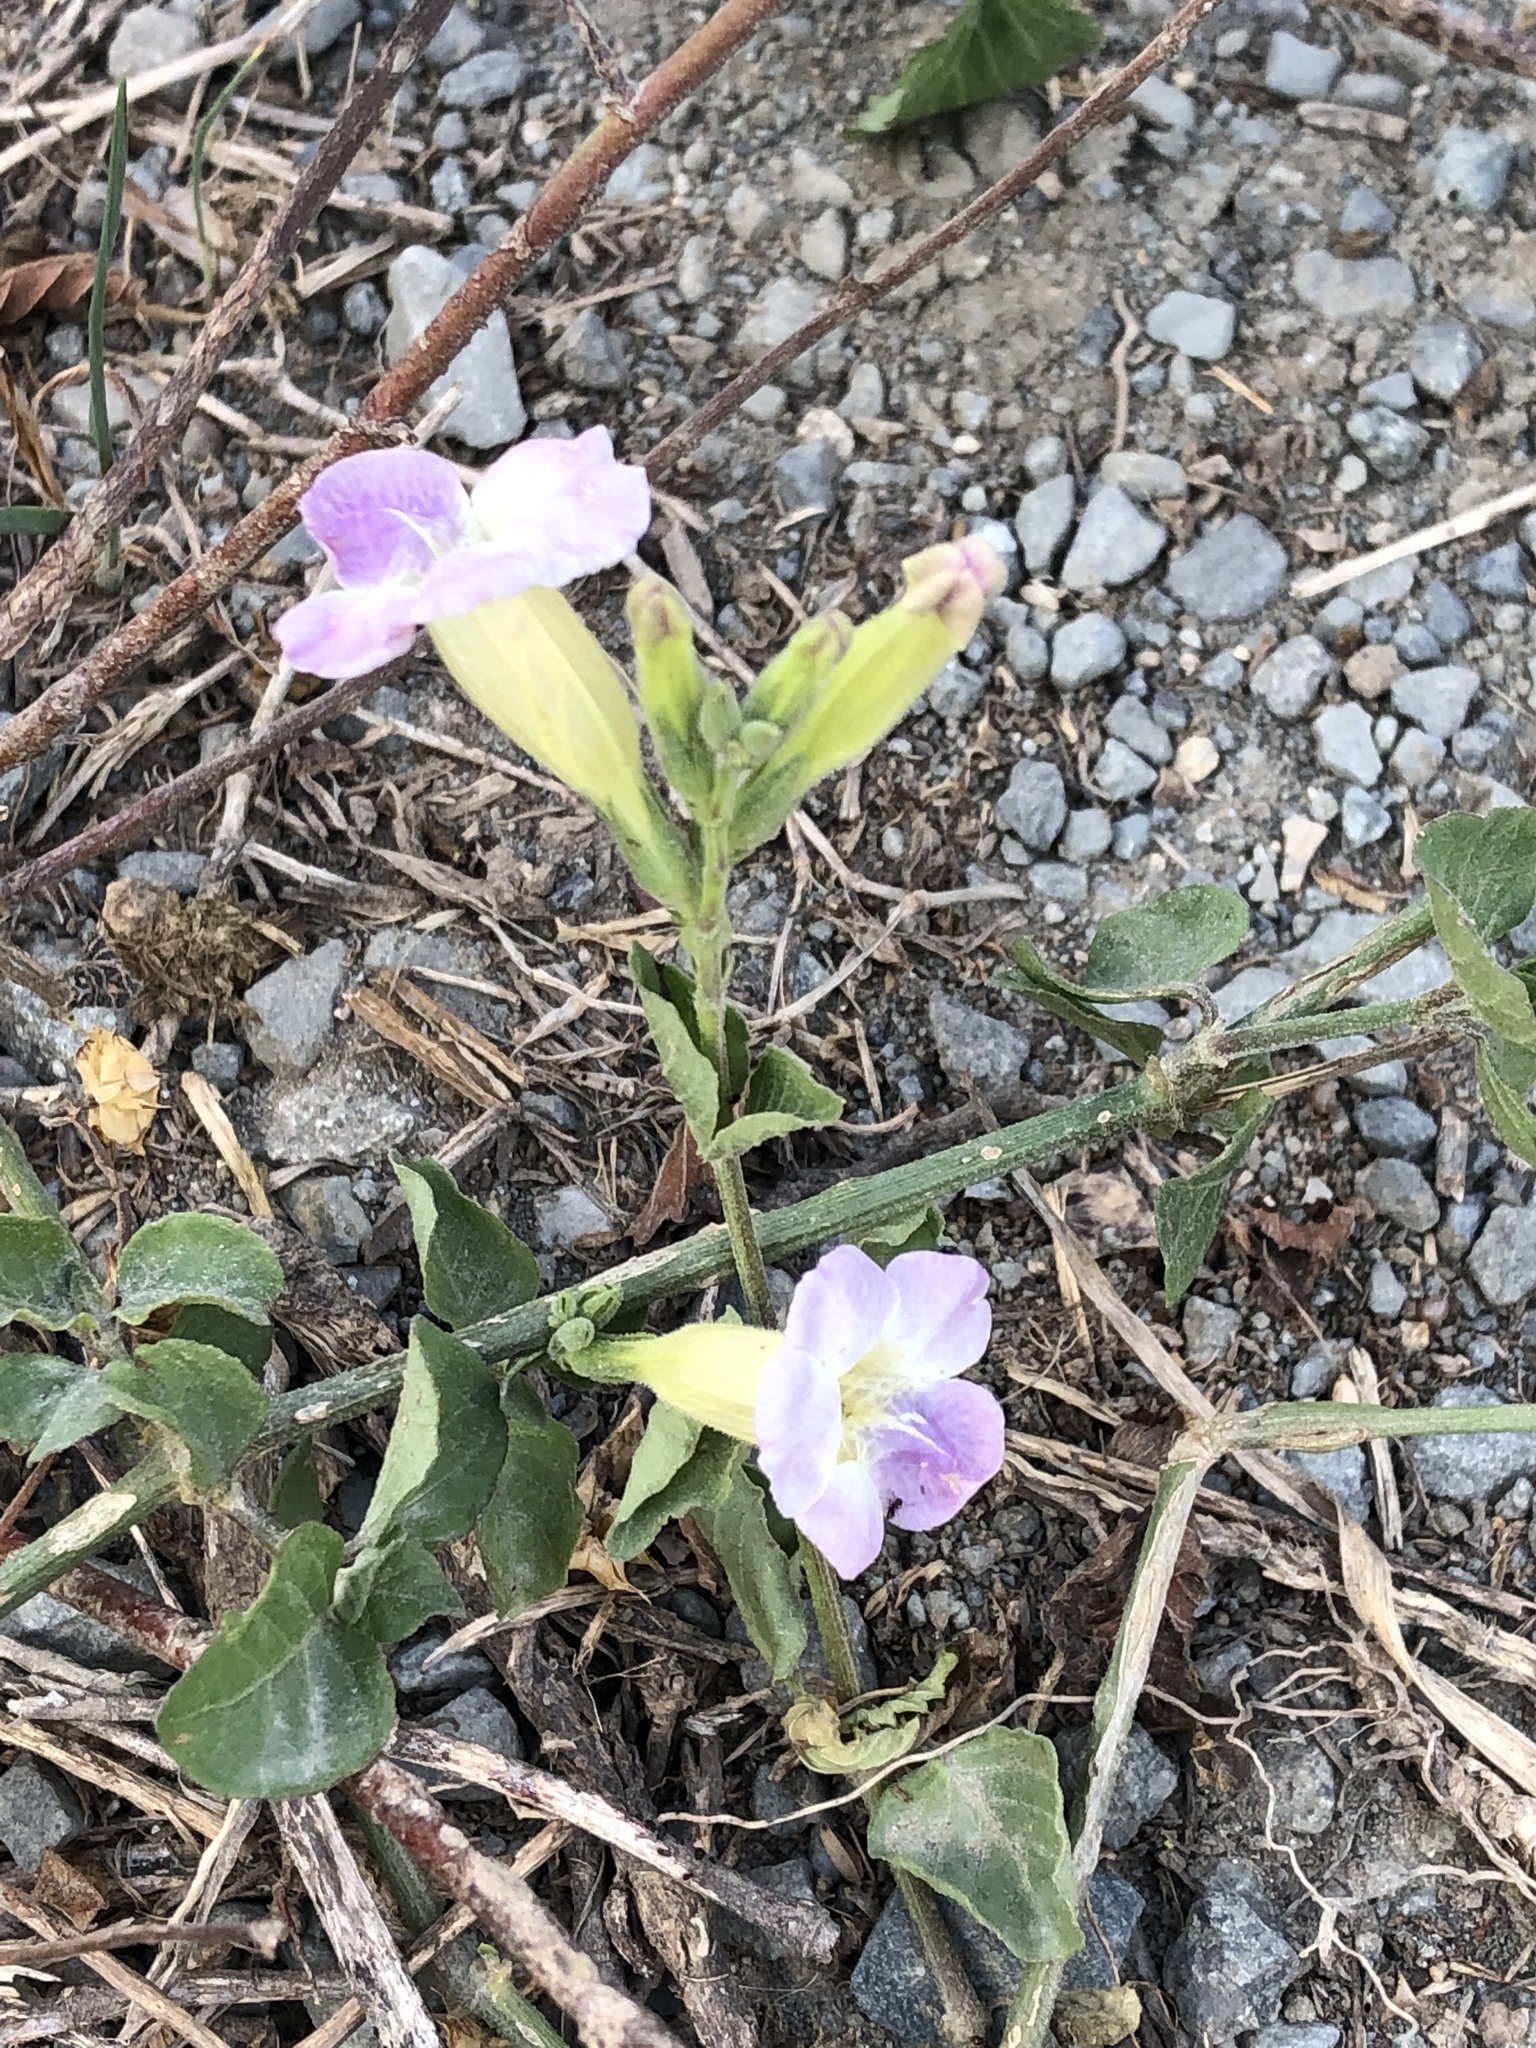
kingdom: Plantae
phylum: Tracheophyta
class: Magnoliopsida
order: Lamiales
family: Acanthaceae
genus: Asystasia
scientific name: Asystasia gangetica
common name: Chinese violet
